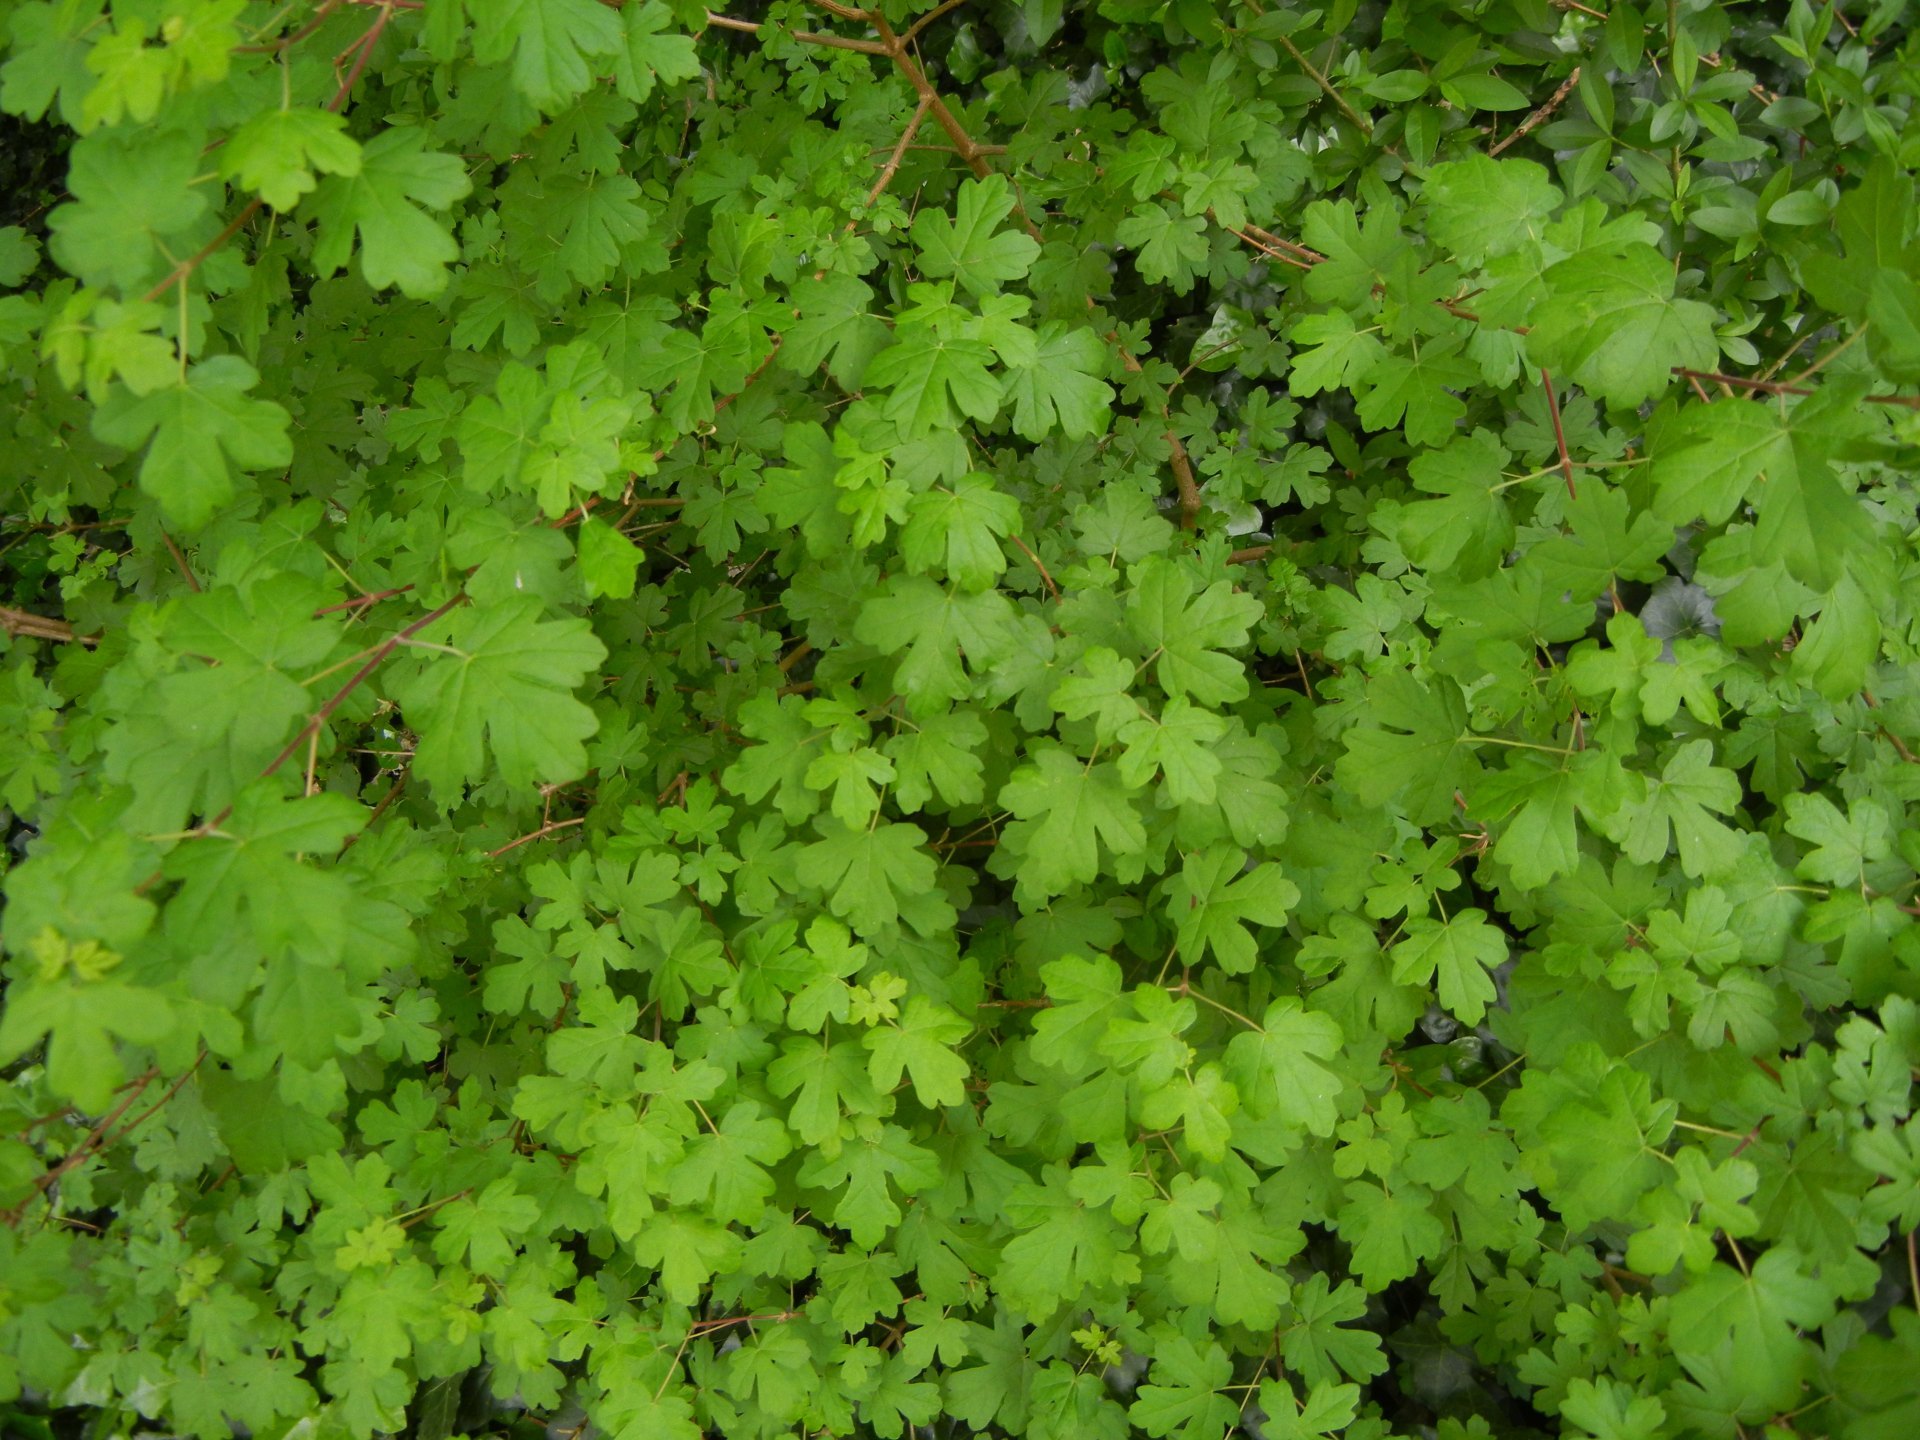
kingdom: Plantae
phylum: Tracheophyta
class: Magnoliopsida
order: Sapindales
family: Sapindaceae
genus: Acer
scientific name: Acer campestre
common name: Field maple
